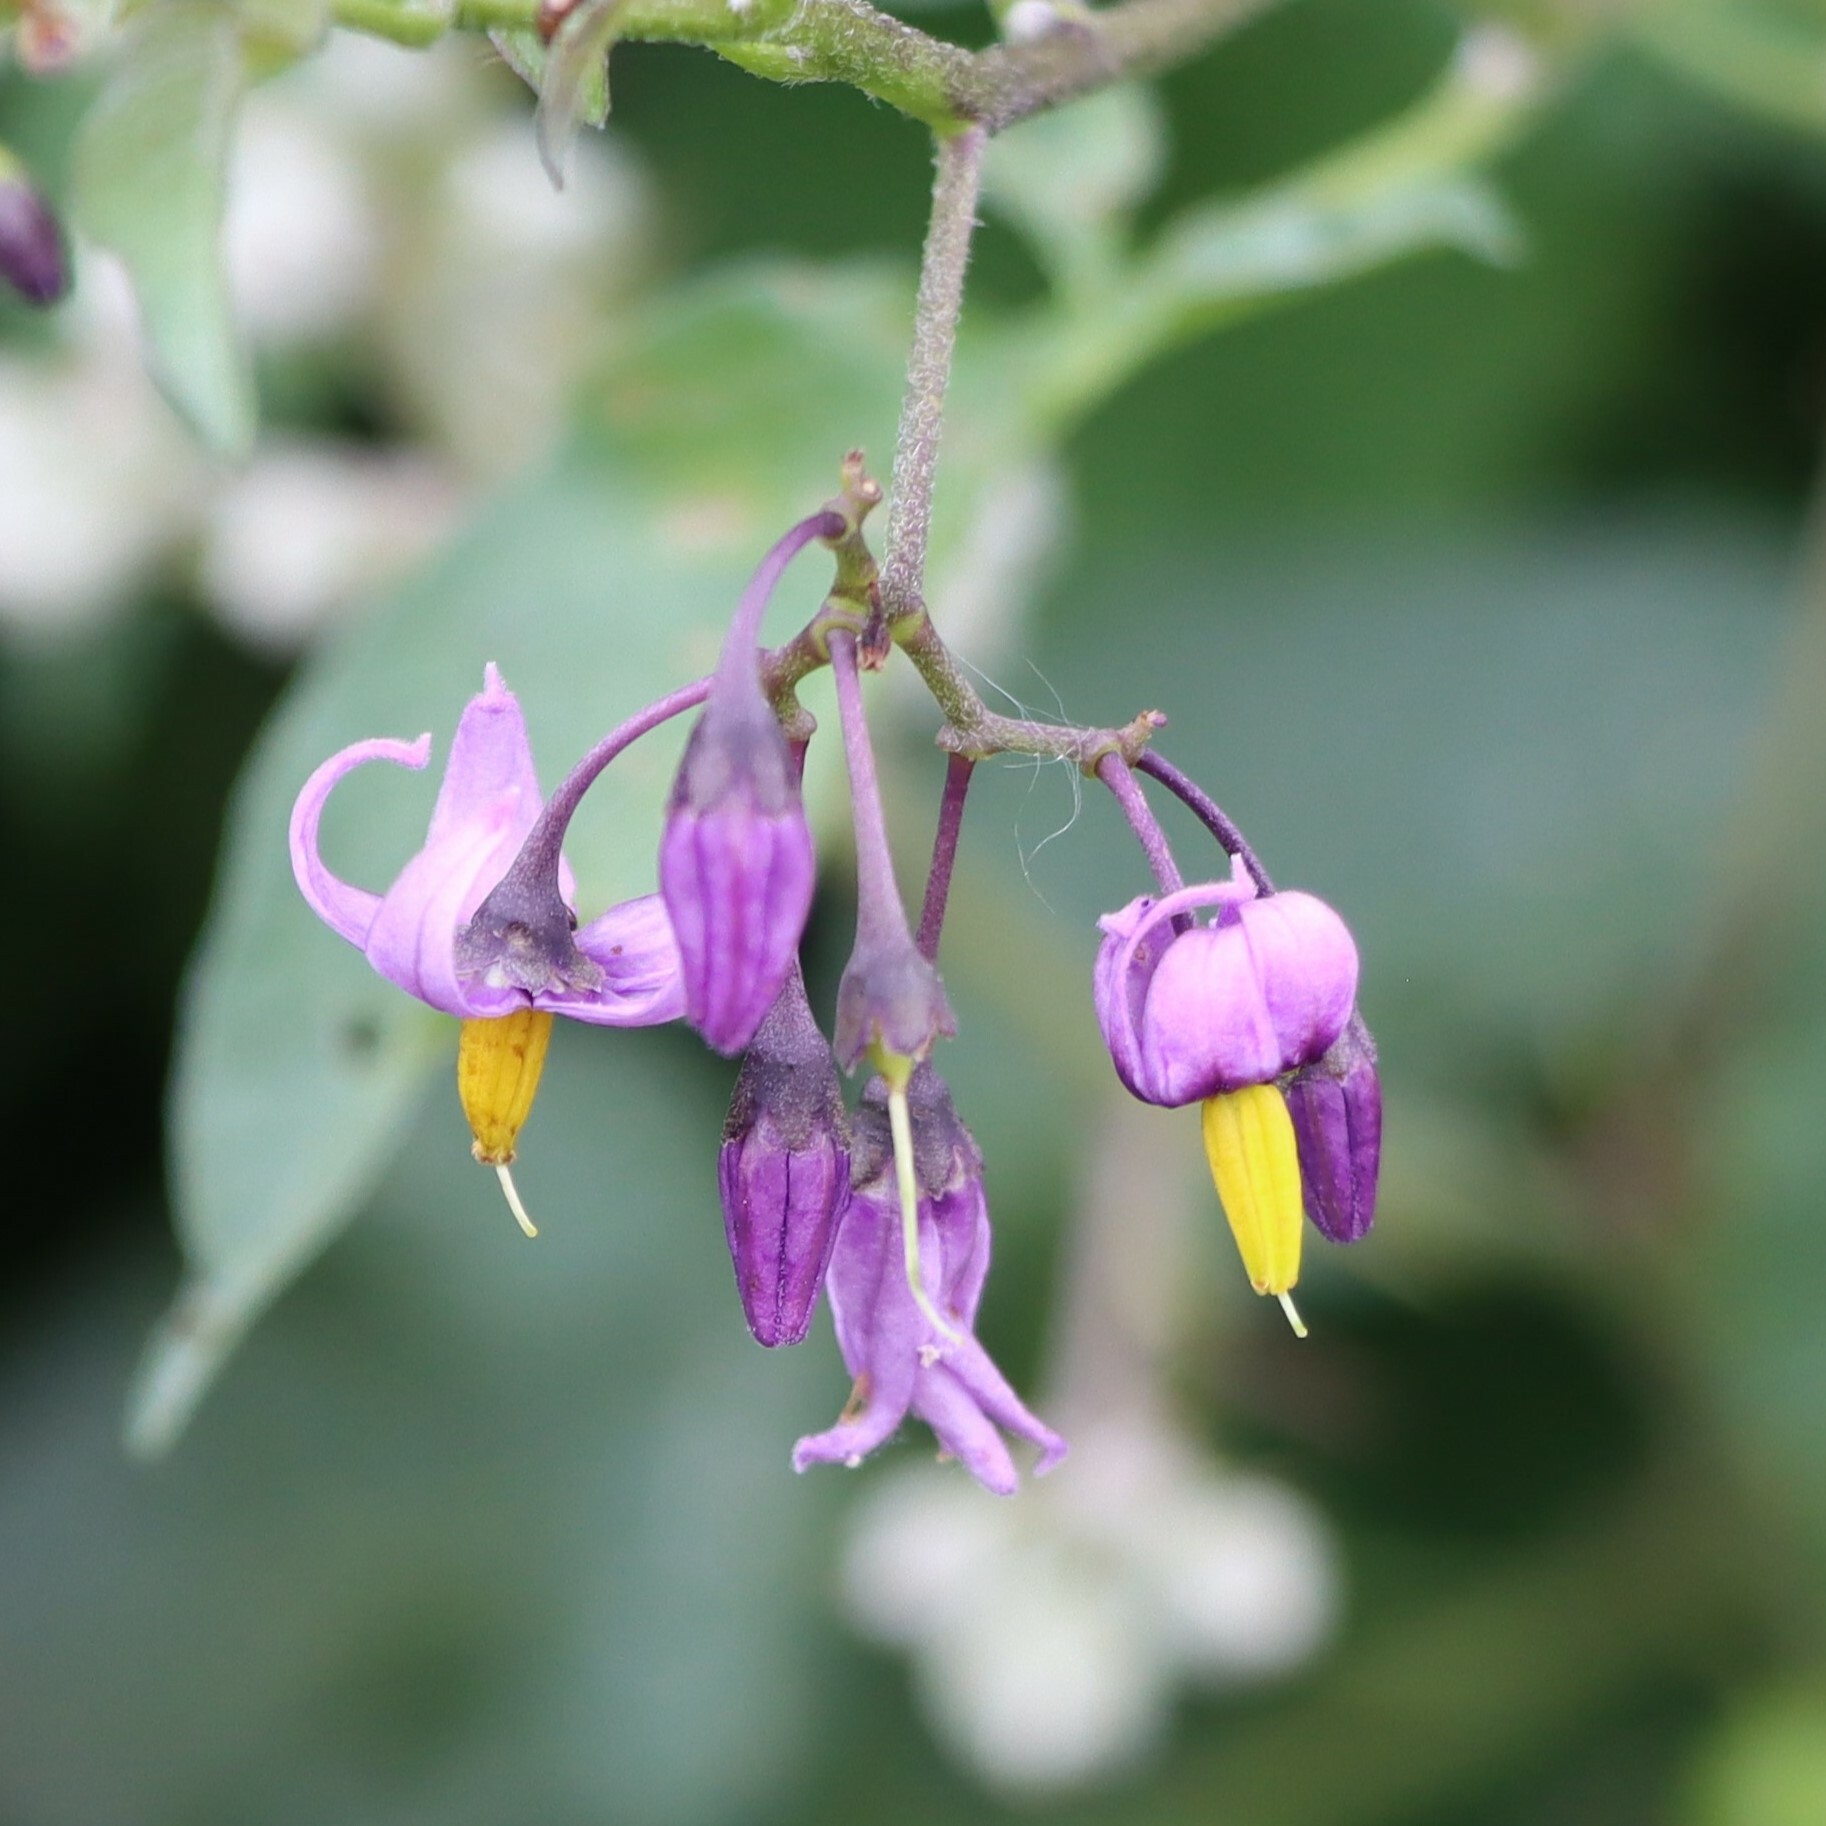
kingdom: Plantae
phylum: Tracheophyta
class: Magnoliopsida
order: Solanales
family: Solanaceae
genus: Solanum
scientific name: Solanum dulcamara
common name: Climbing nightshade
